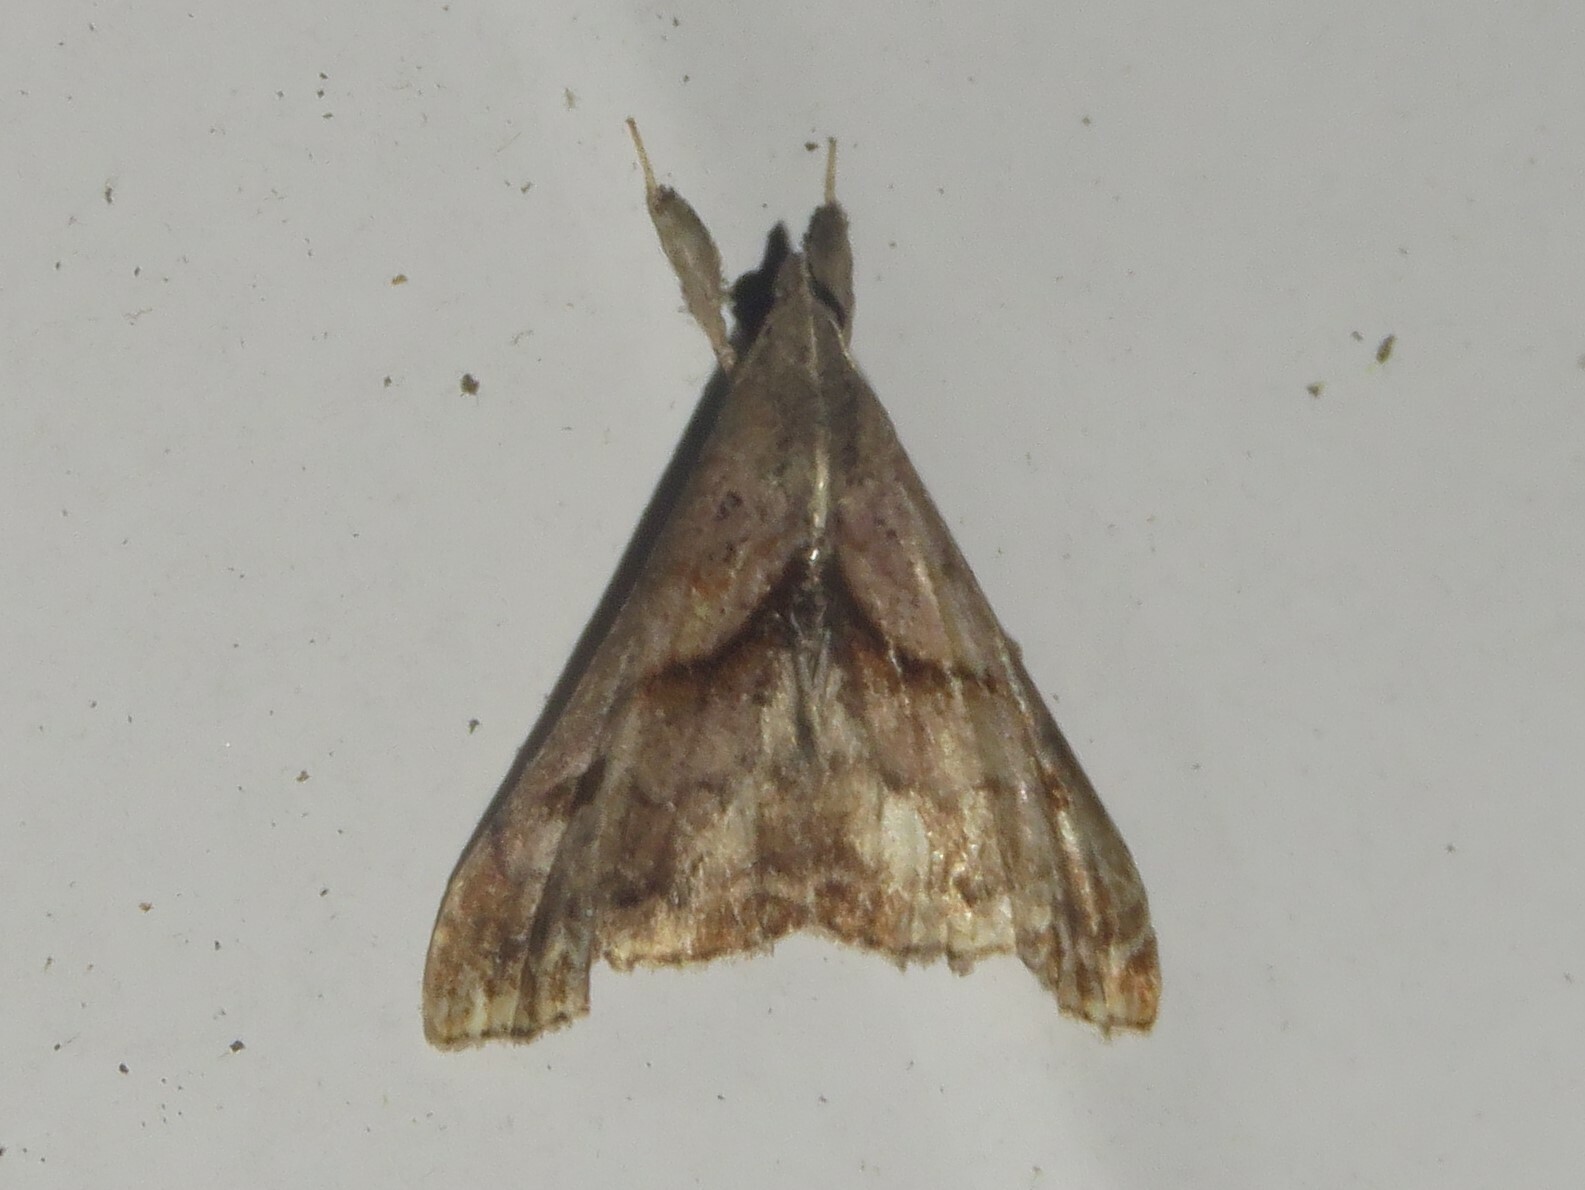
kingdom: Animalia
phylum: Arthropoda
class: Insecta
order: Lepidoptera
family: Erebidae
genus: Palthis
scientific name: Palthis angulalis
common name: Dark-spotted palthis moth
